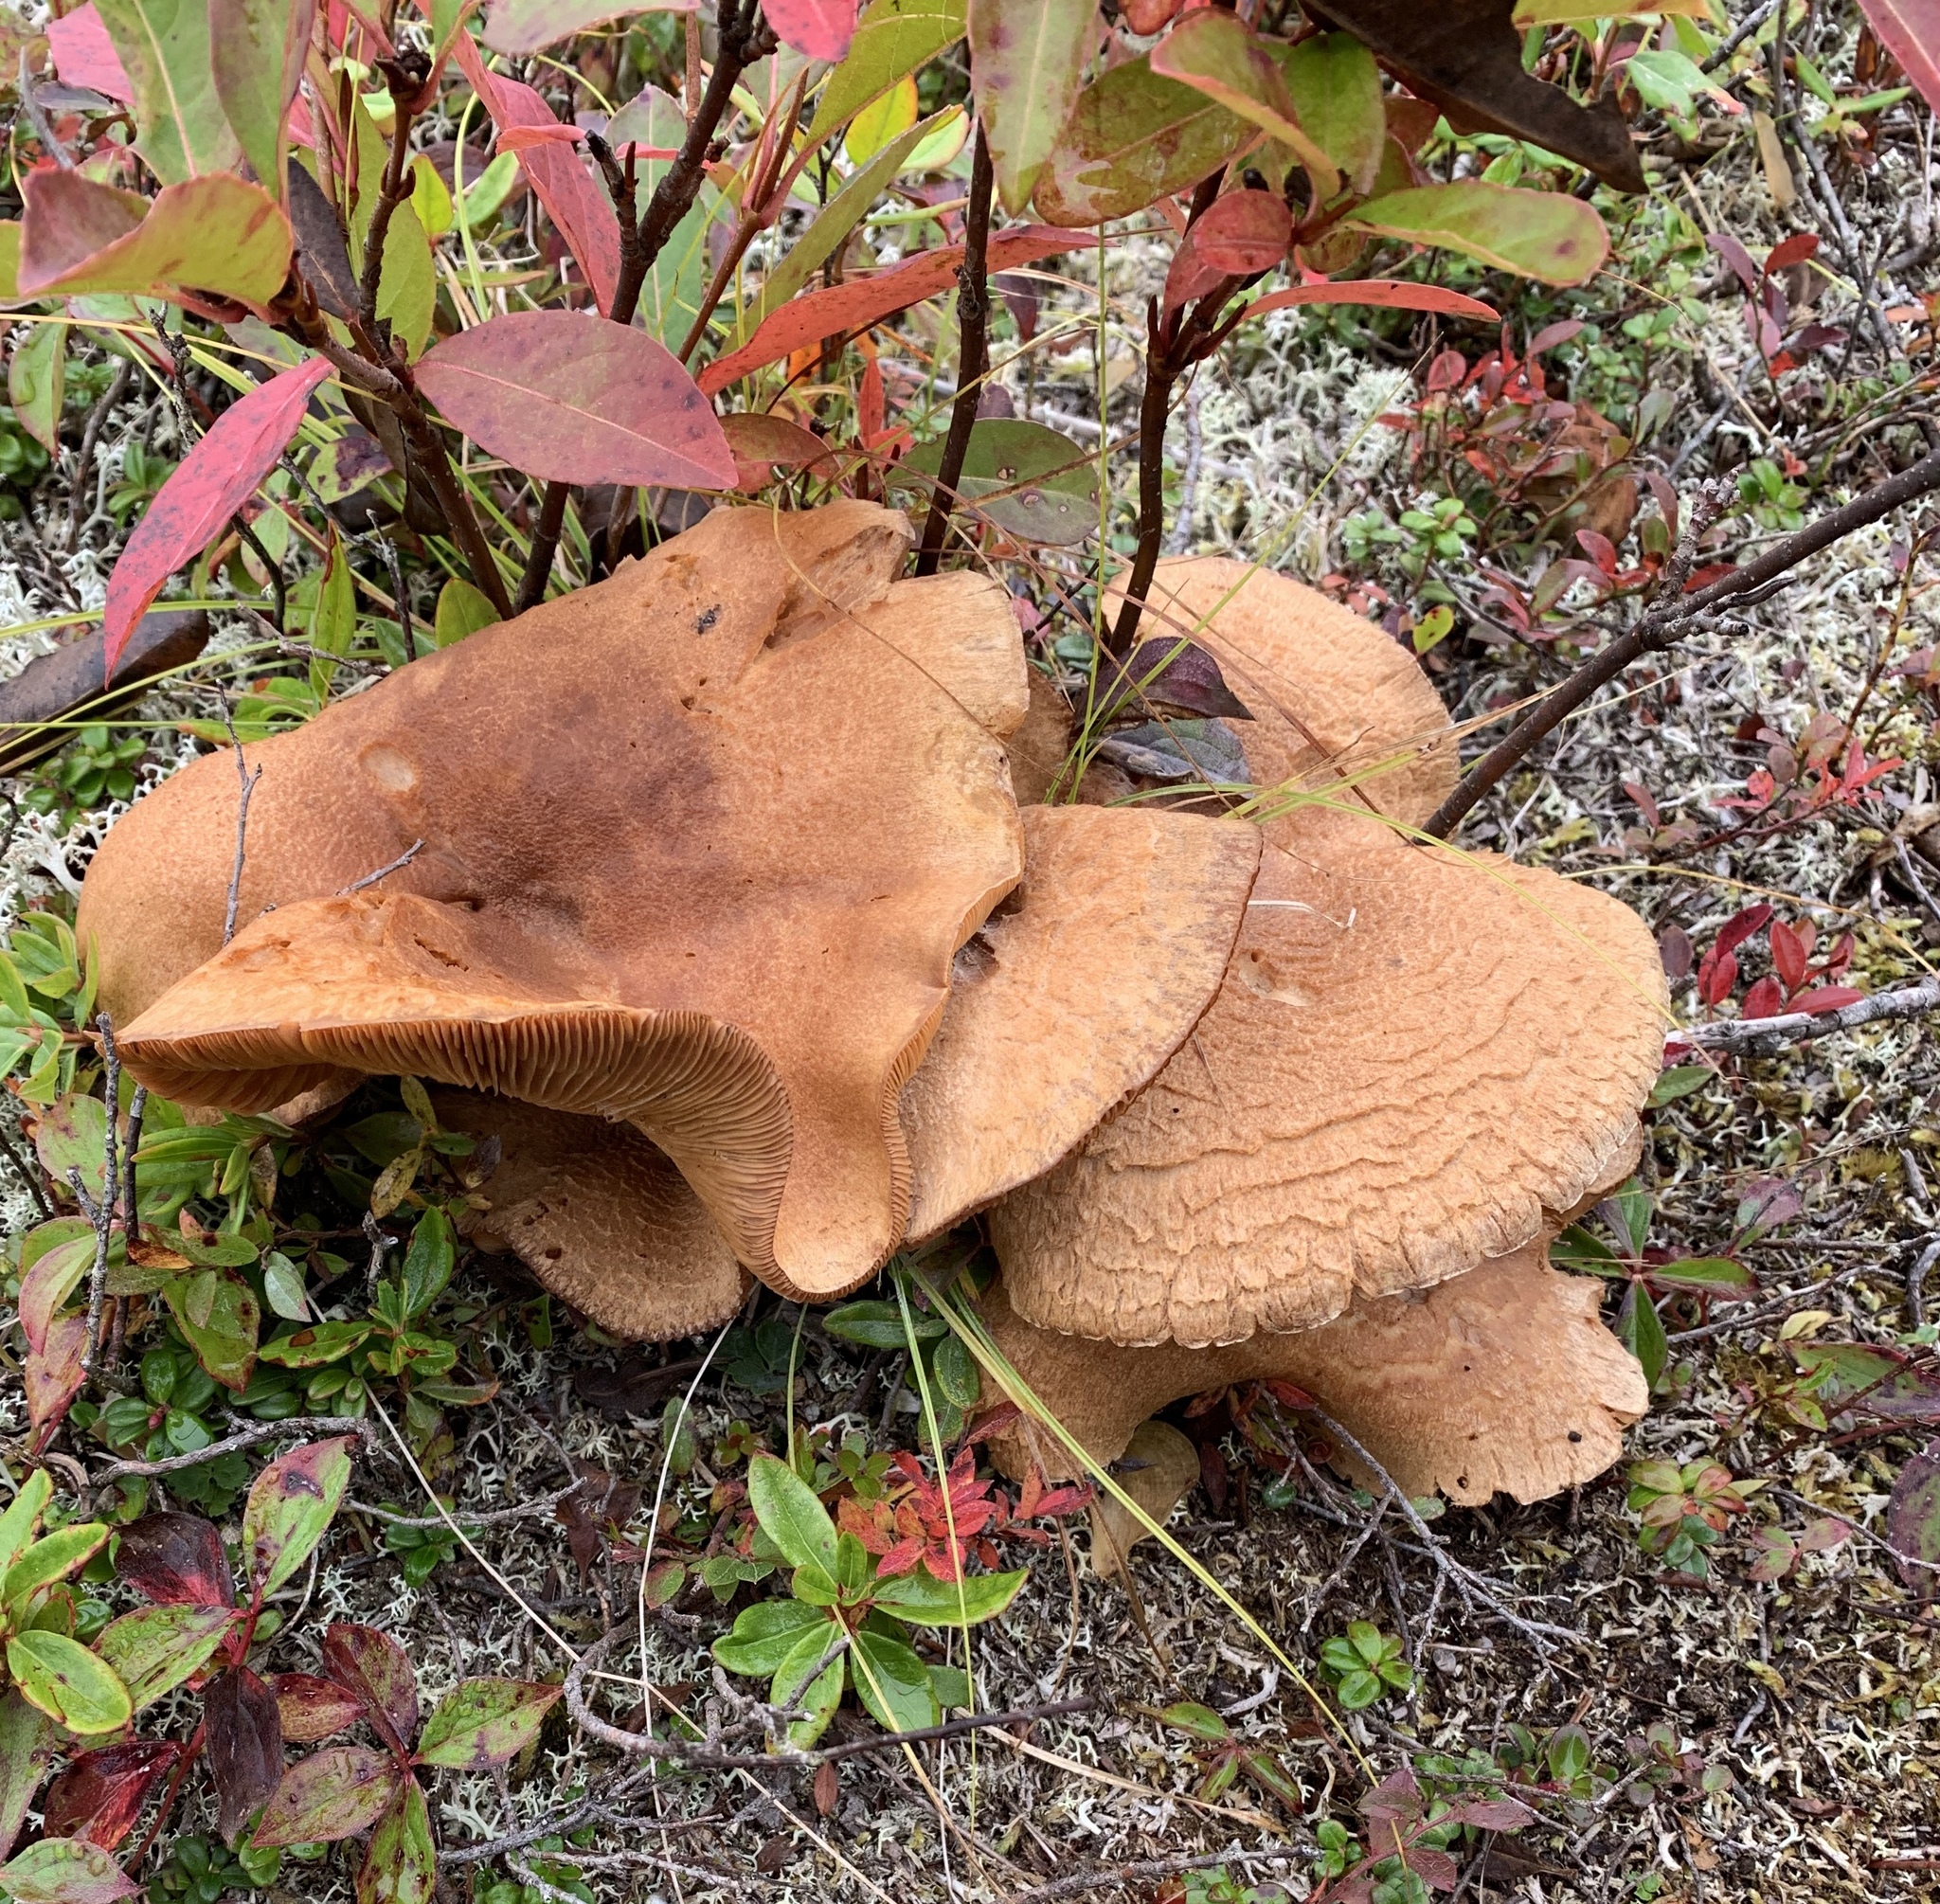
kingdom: Fungi
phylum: Basidiomycota
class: Agaricomycetes
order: Agaricales
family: Tricholomataceae
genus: Tricholoma
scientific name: Tricholoma vaccinum
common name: Scaly knight
